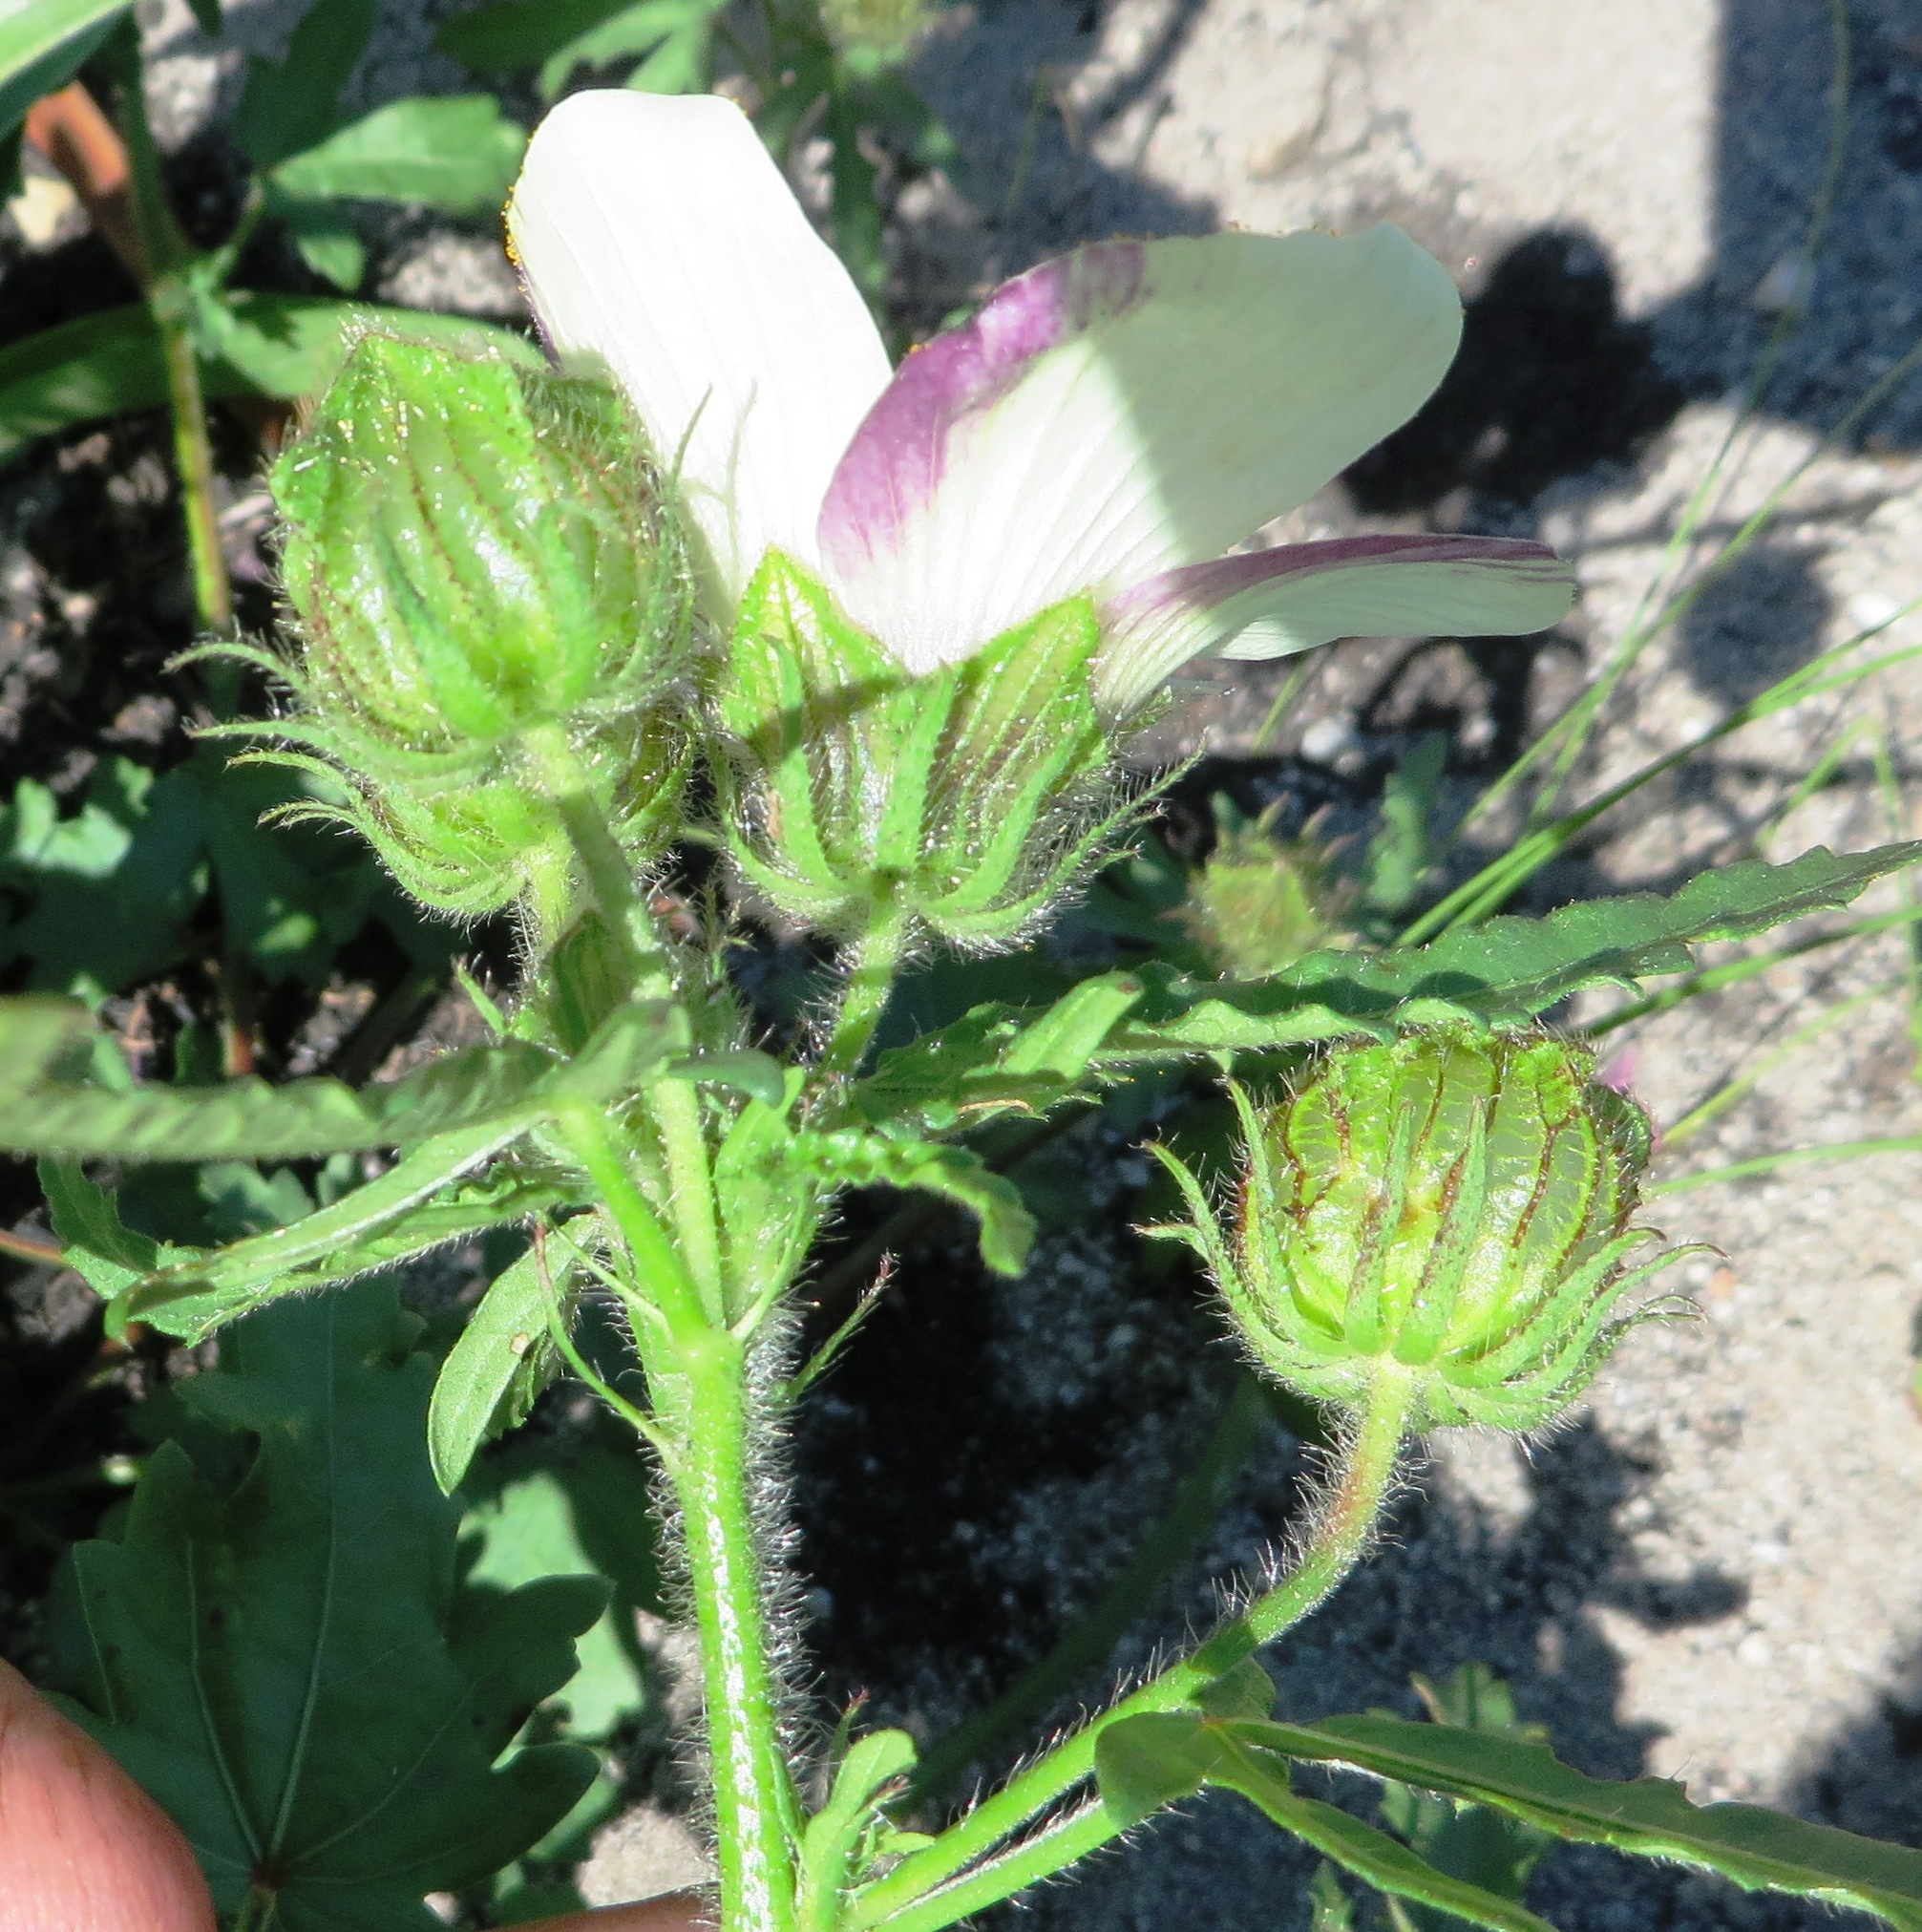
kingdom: Plantae
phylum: Tracheophyta
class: Magnoliopsida
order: Malvales
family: Malvaceae
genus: Hibiscus
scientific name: Hibiscus trionum
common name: Bladder ketmia
